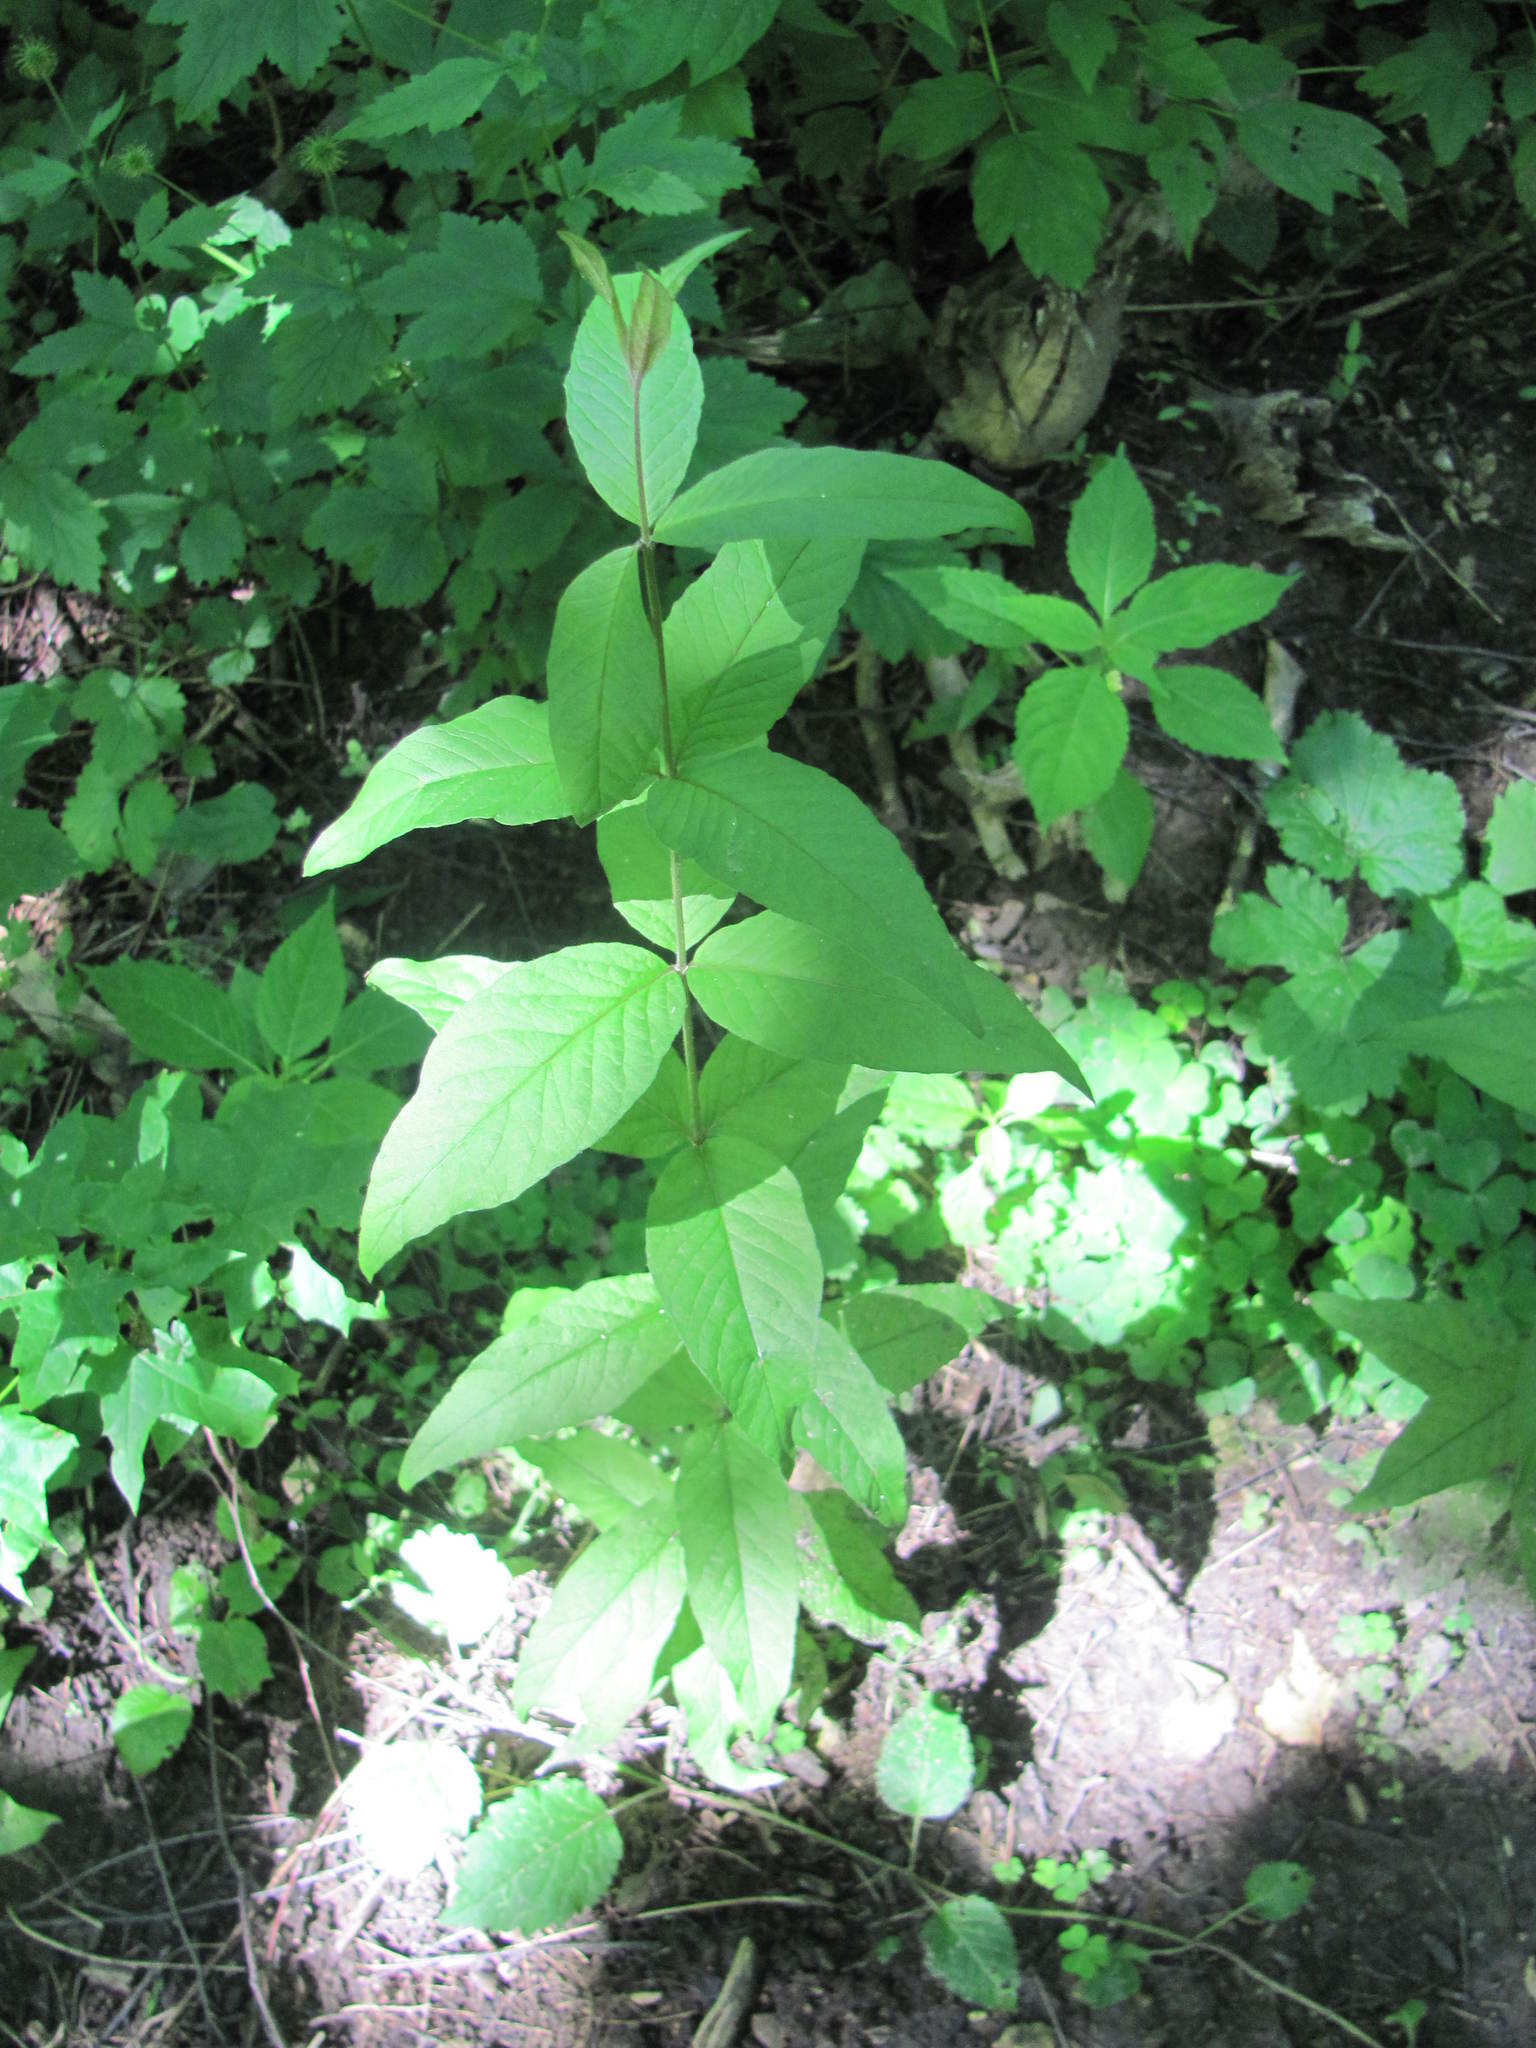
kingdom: Plantae
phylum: Tracheophyta
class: Magnoliopsida
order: Ericales
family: Primulaceae
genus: Lysimachia
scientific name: Lysimachia vulgaris
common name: Yellow loosestrife
